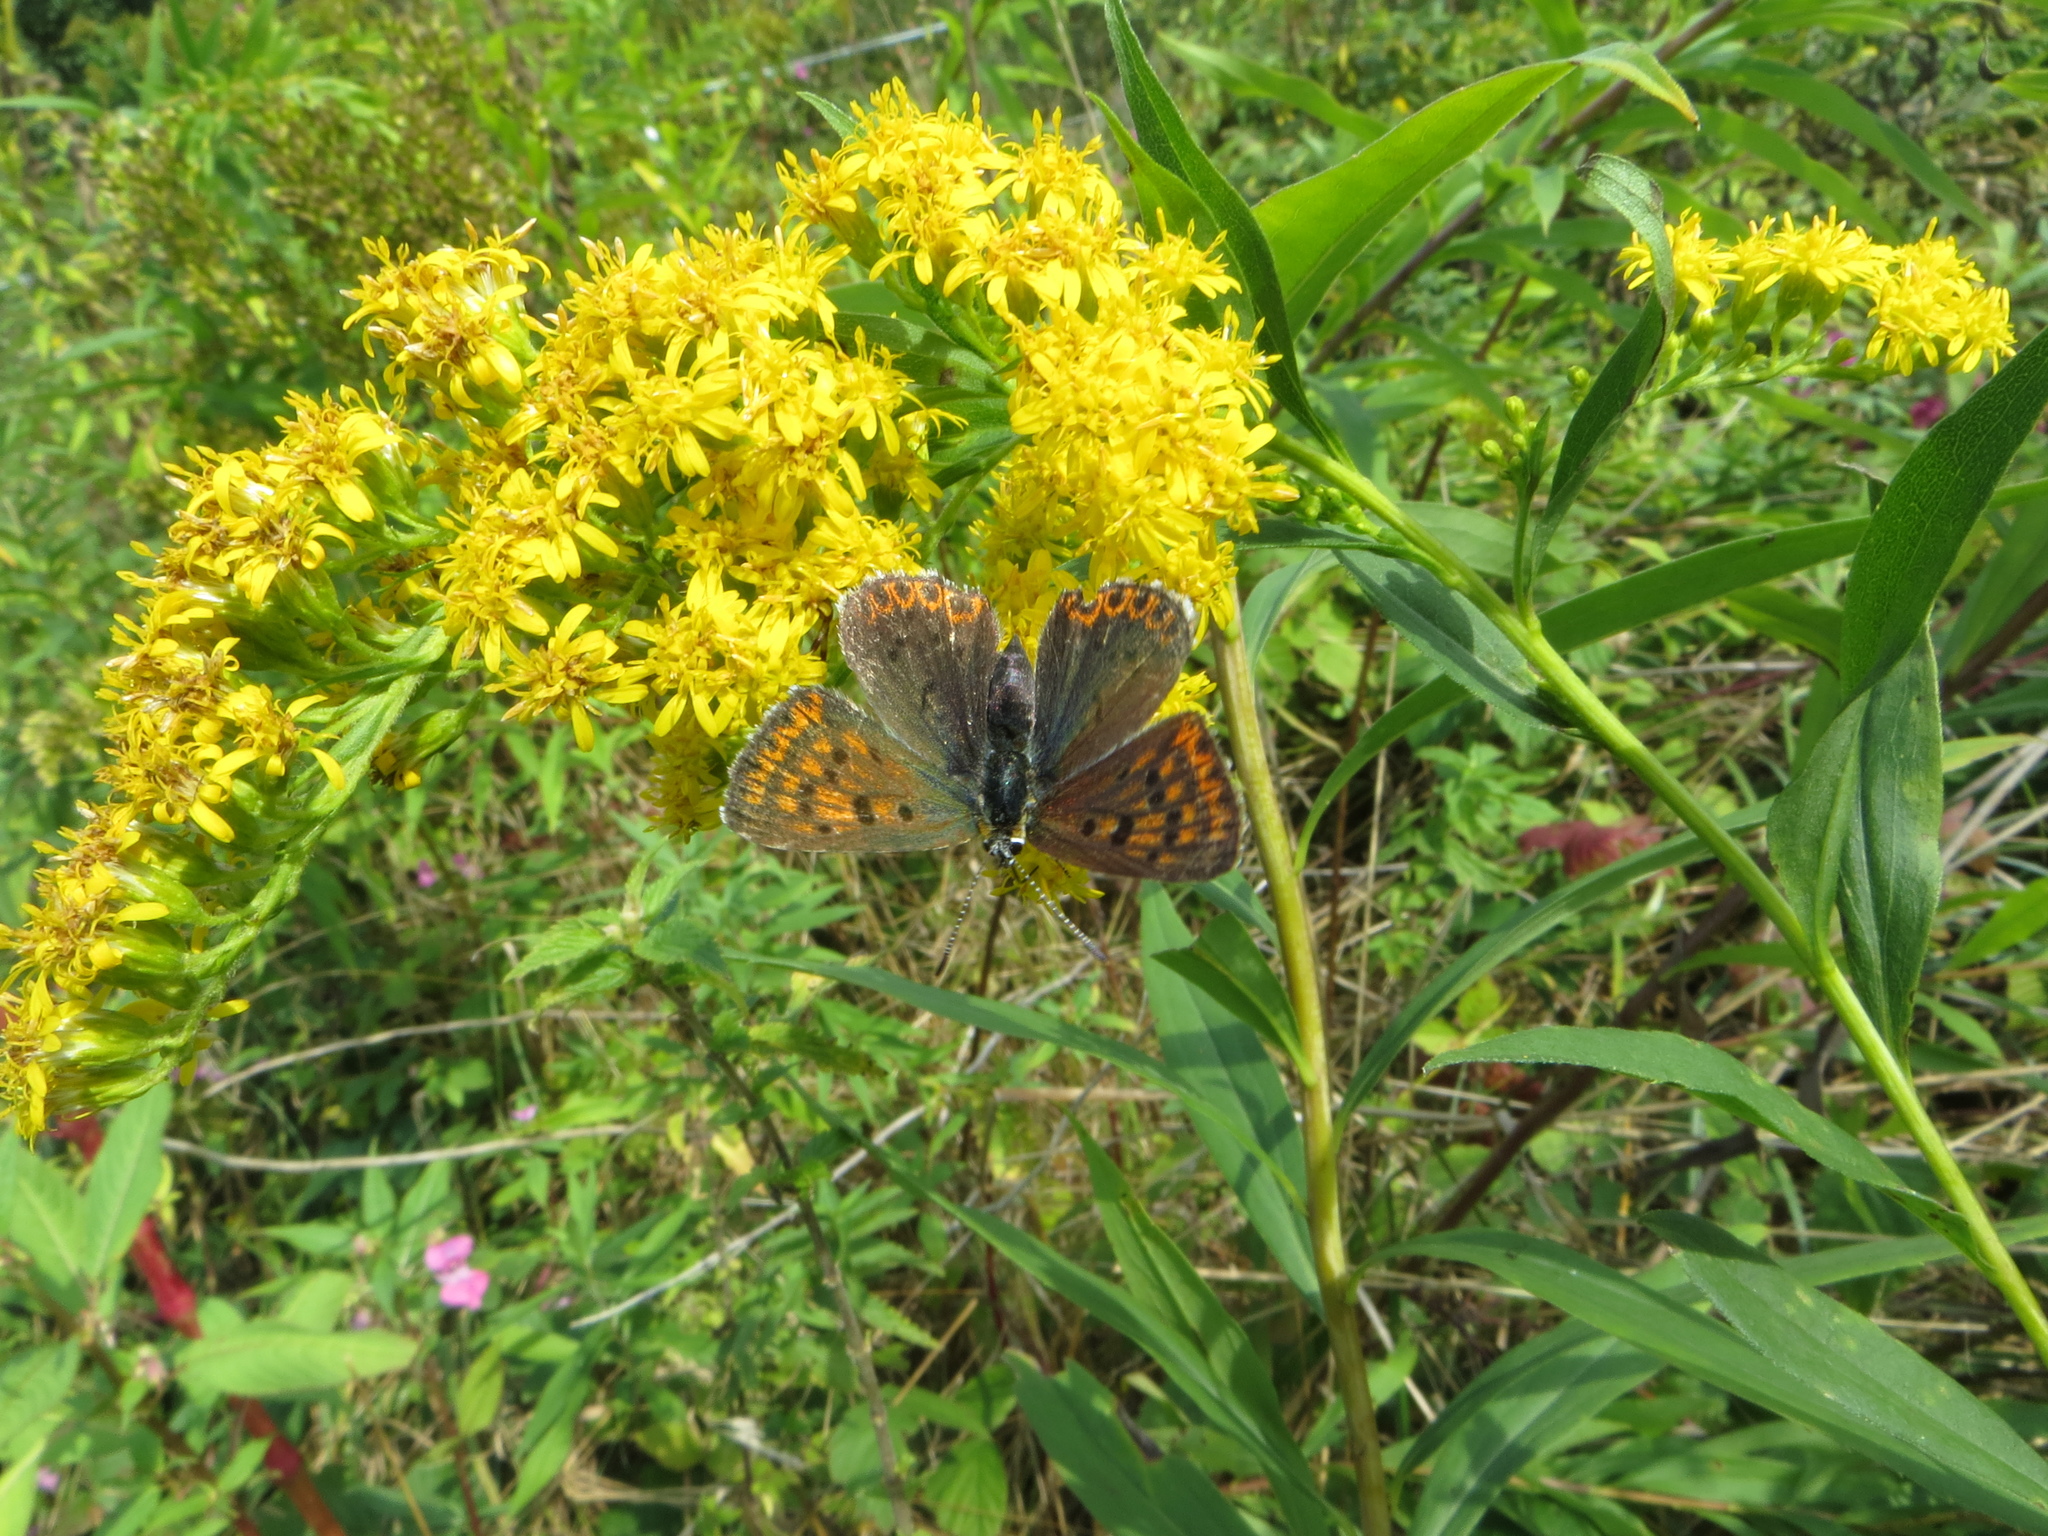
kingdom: Animalia
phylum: Arthropoda
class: Insecta
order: Lepidoptera
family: Lycaenidae
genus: Loweia
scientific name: Loweia tityrus
